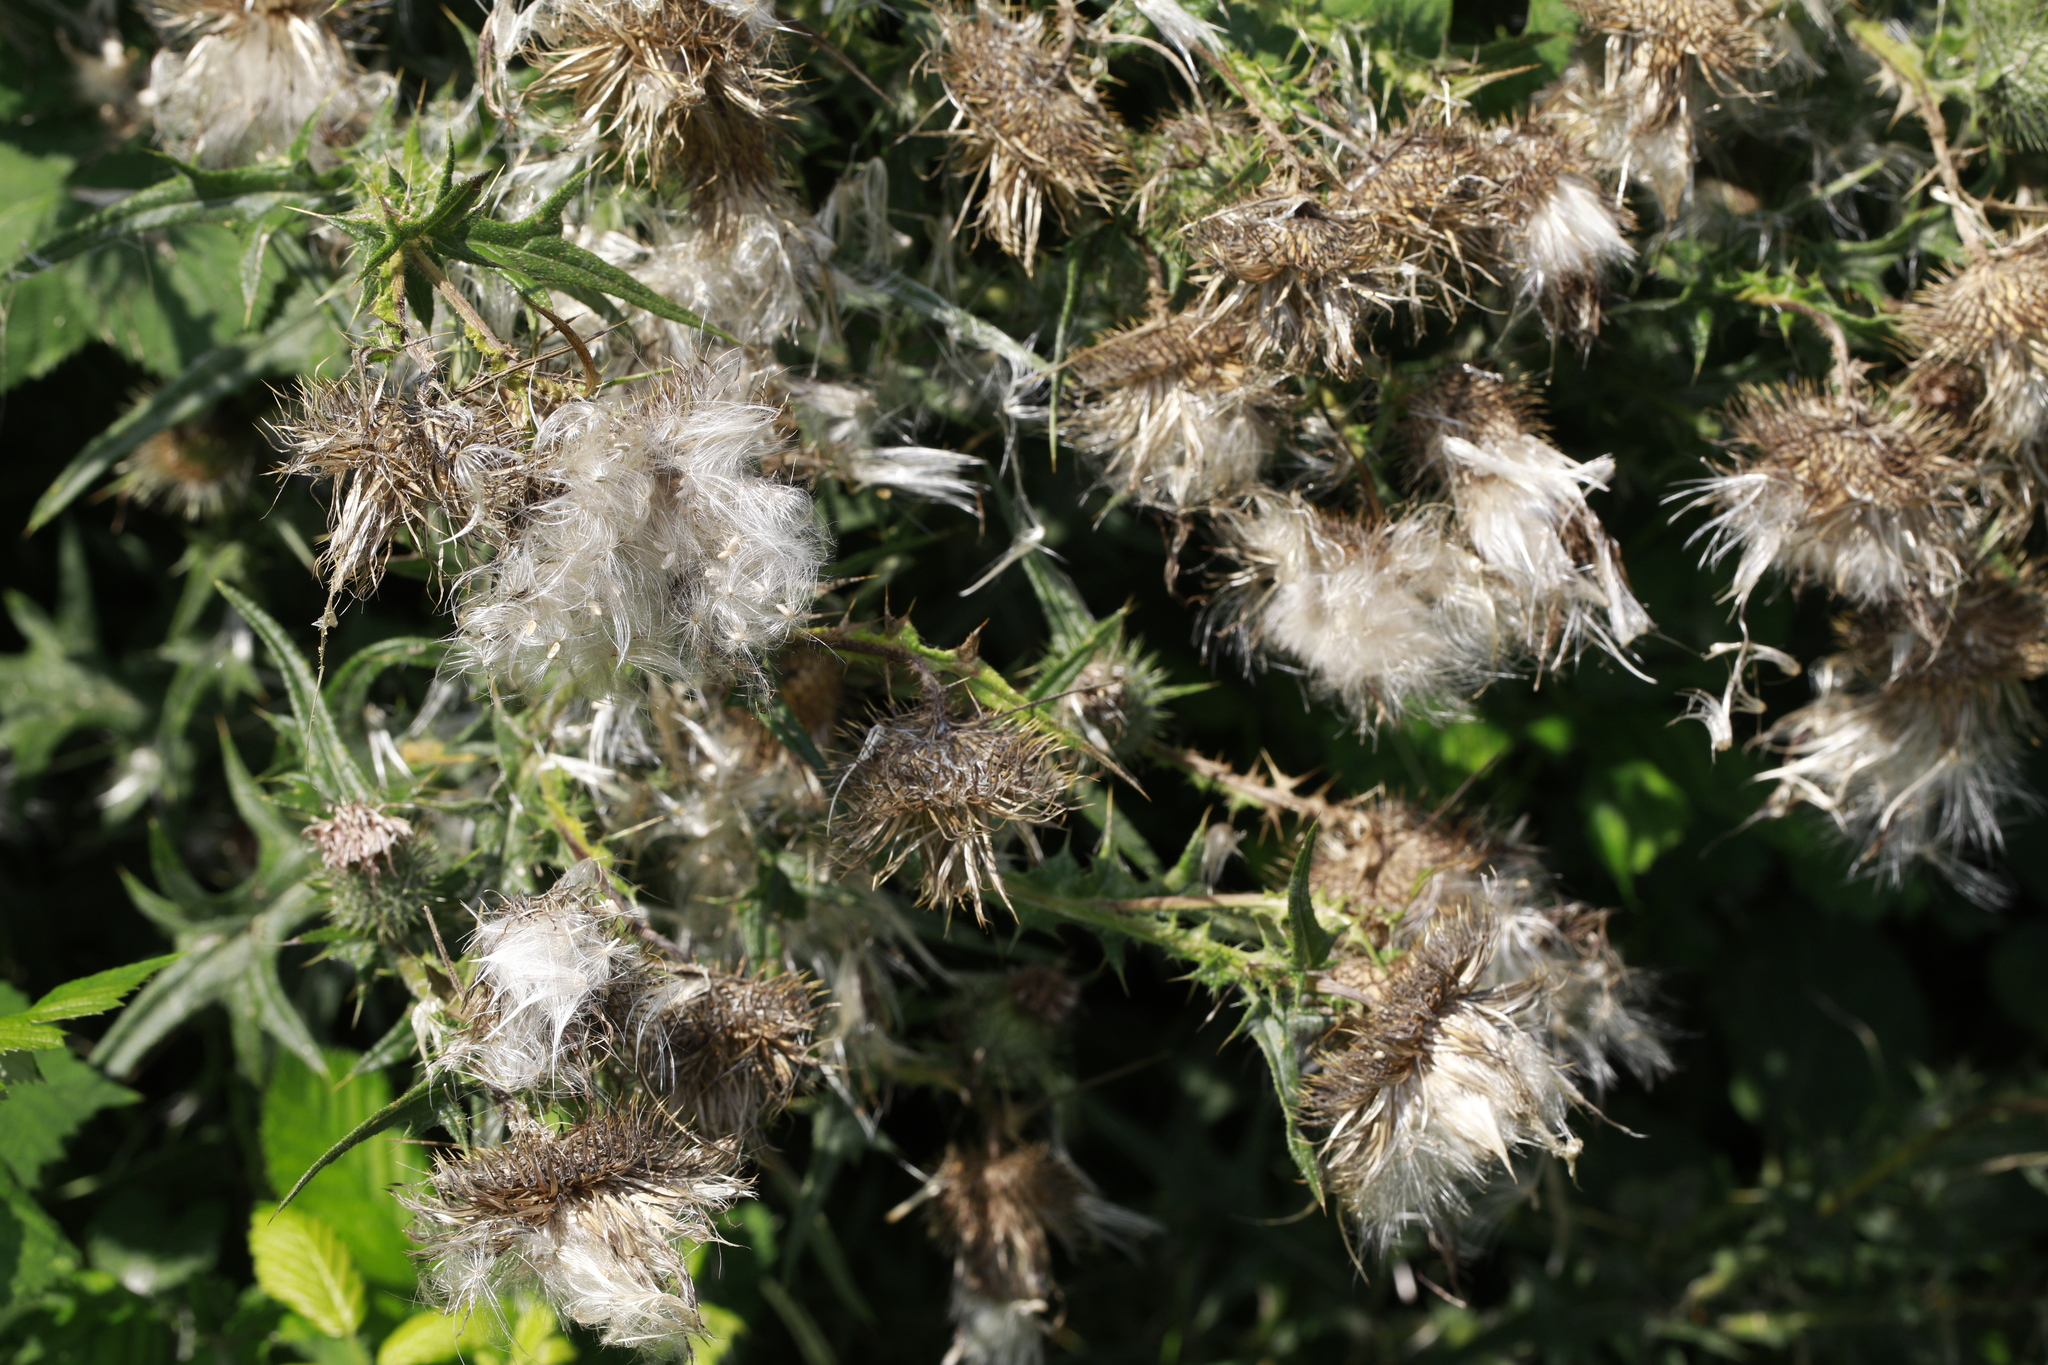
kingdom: Plantae
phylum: Tracheophyta
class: Magnoliopsida
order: Asterales
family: Asteraceae
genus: Cirsium
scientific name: Cirsium vulgare
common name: Bull thistle
